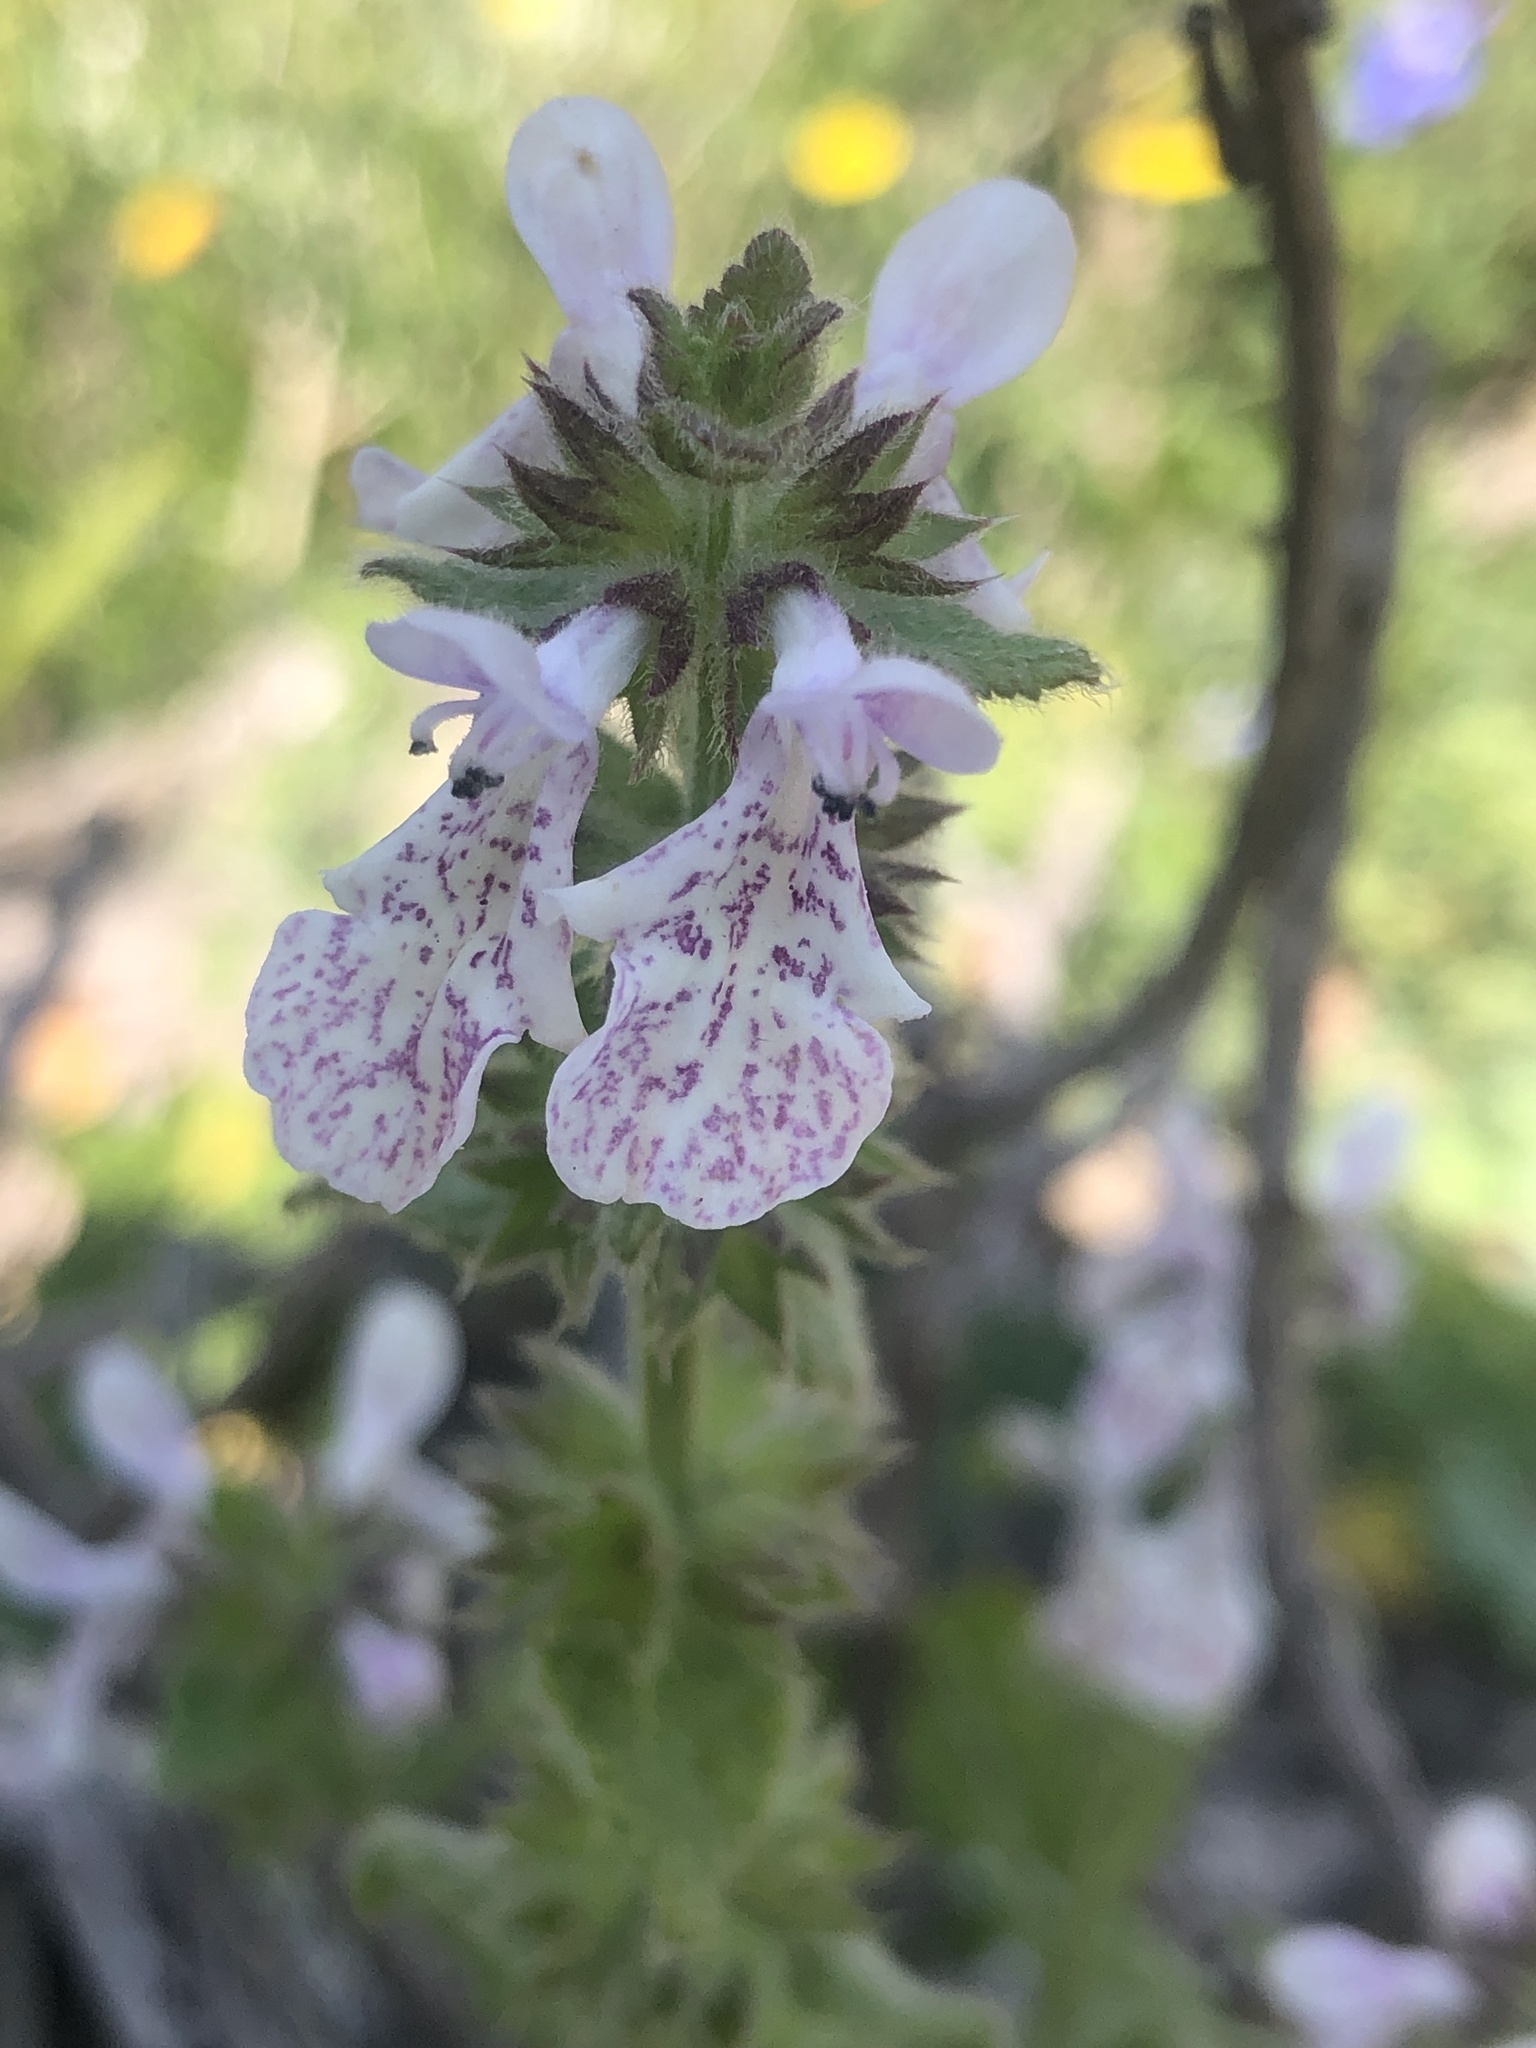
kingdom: Plantae
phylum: Tracheophyta
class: Magnoliopsida
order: Lamiales
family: Lamiaceae
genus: Stachys
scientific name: Stachys bolusii
